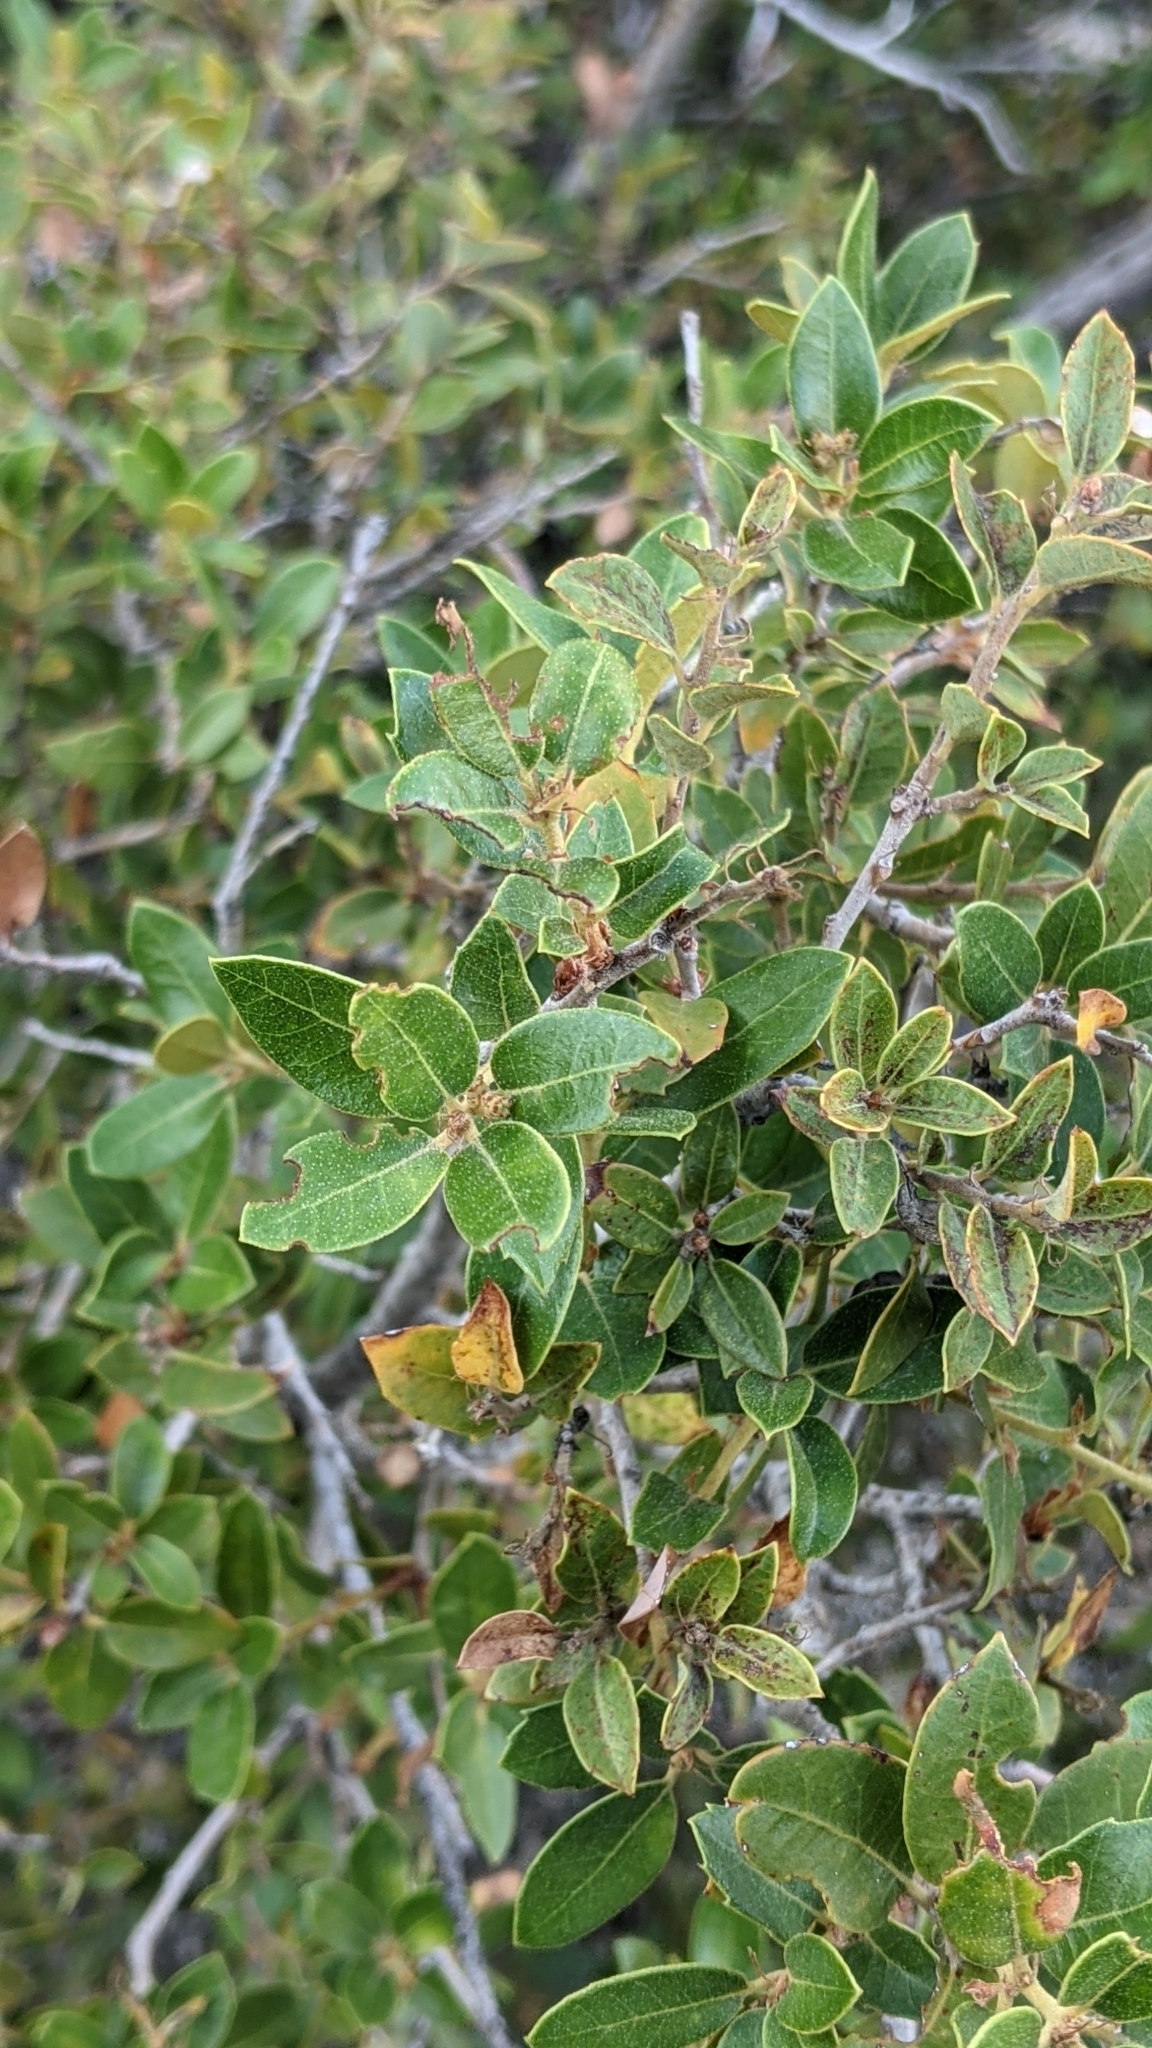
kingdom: Plantae
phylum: Tracheophyta
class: Magnoliopsida
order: Fagales
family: Fagaceae
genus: Quercus
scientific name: Quercus vacciniifolia
